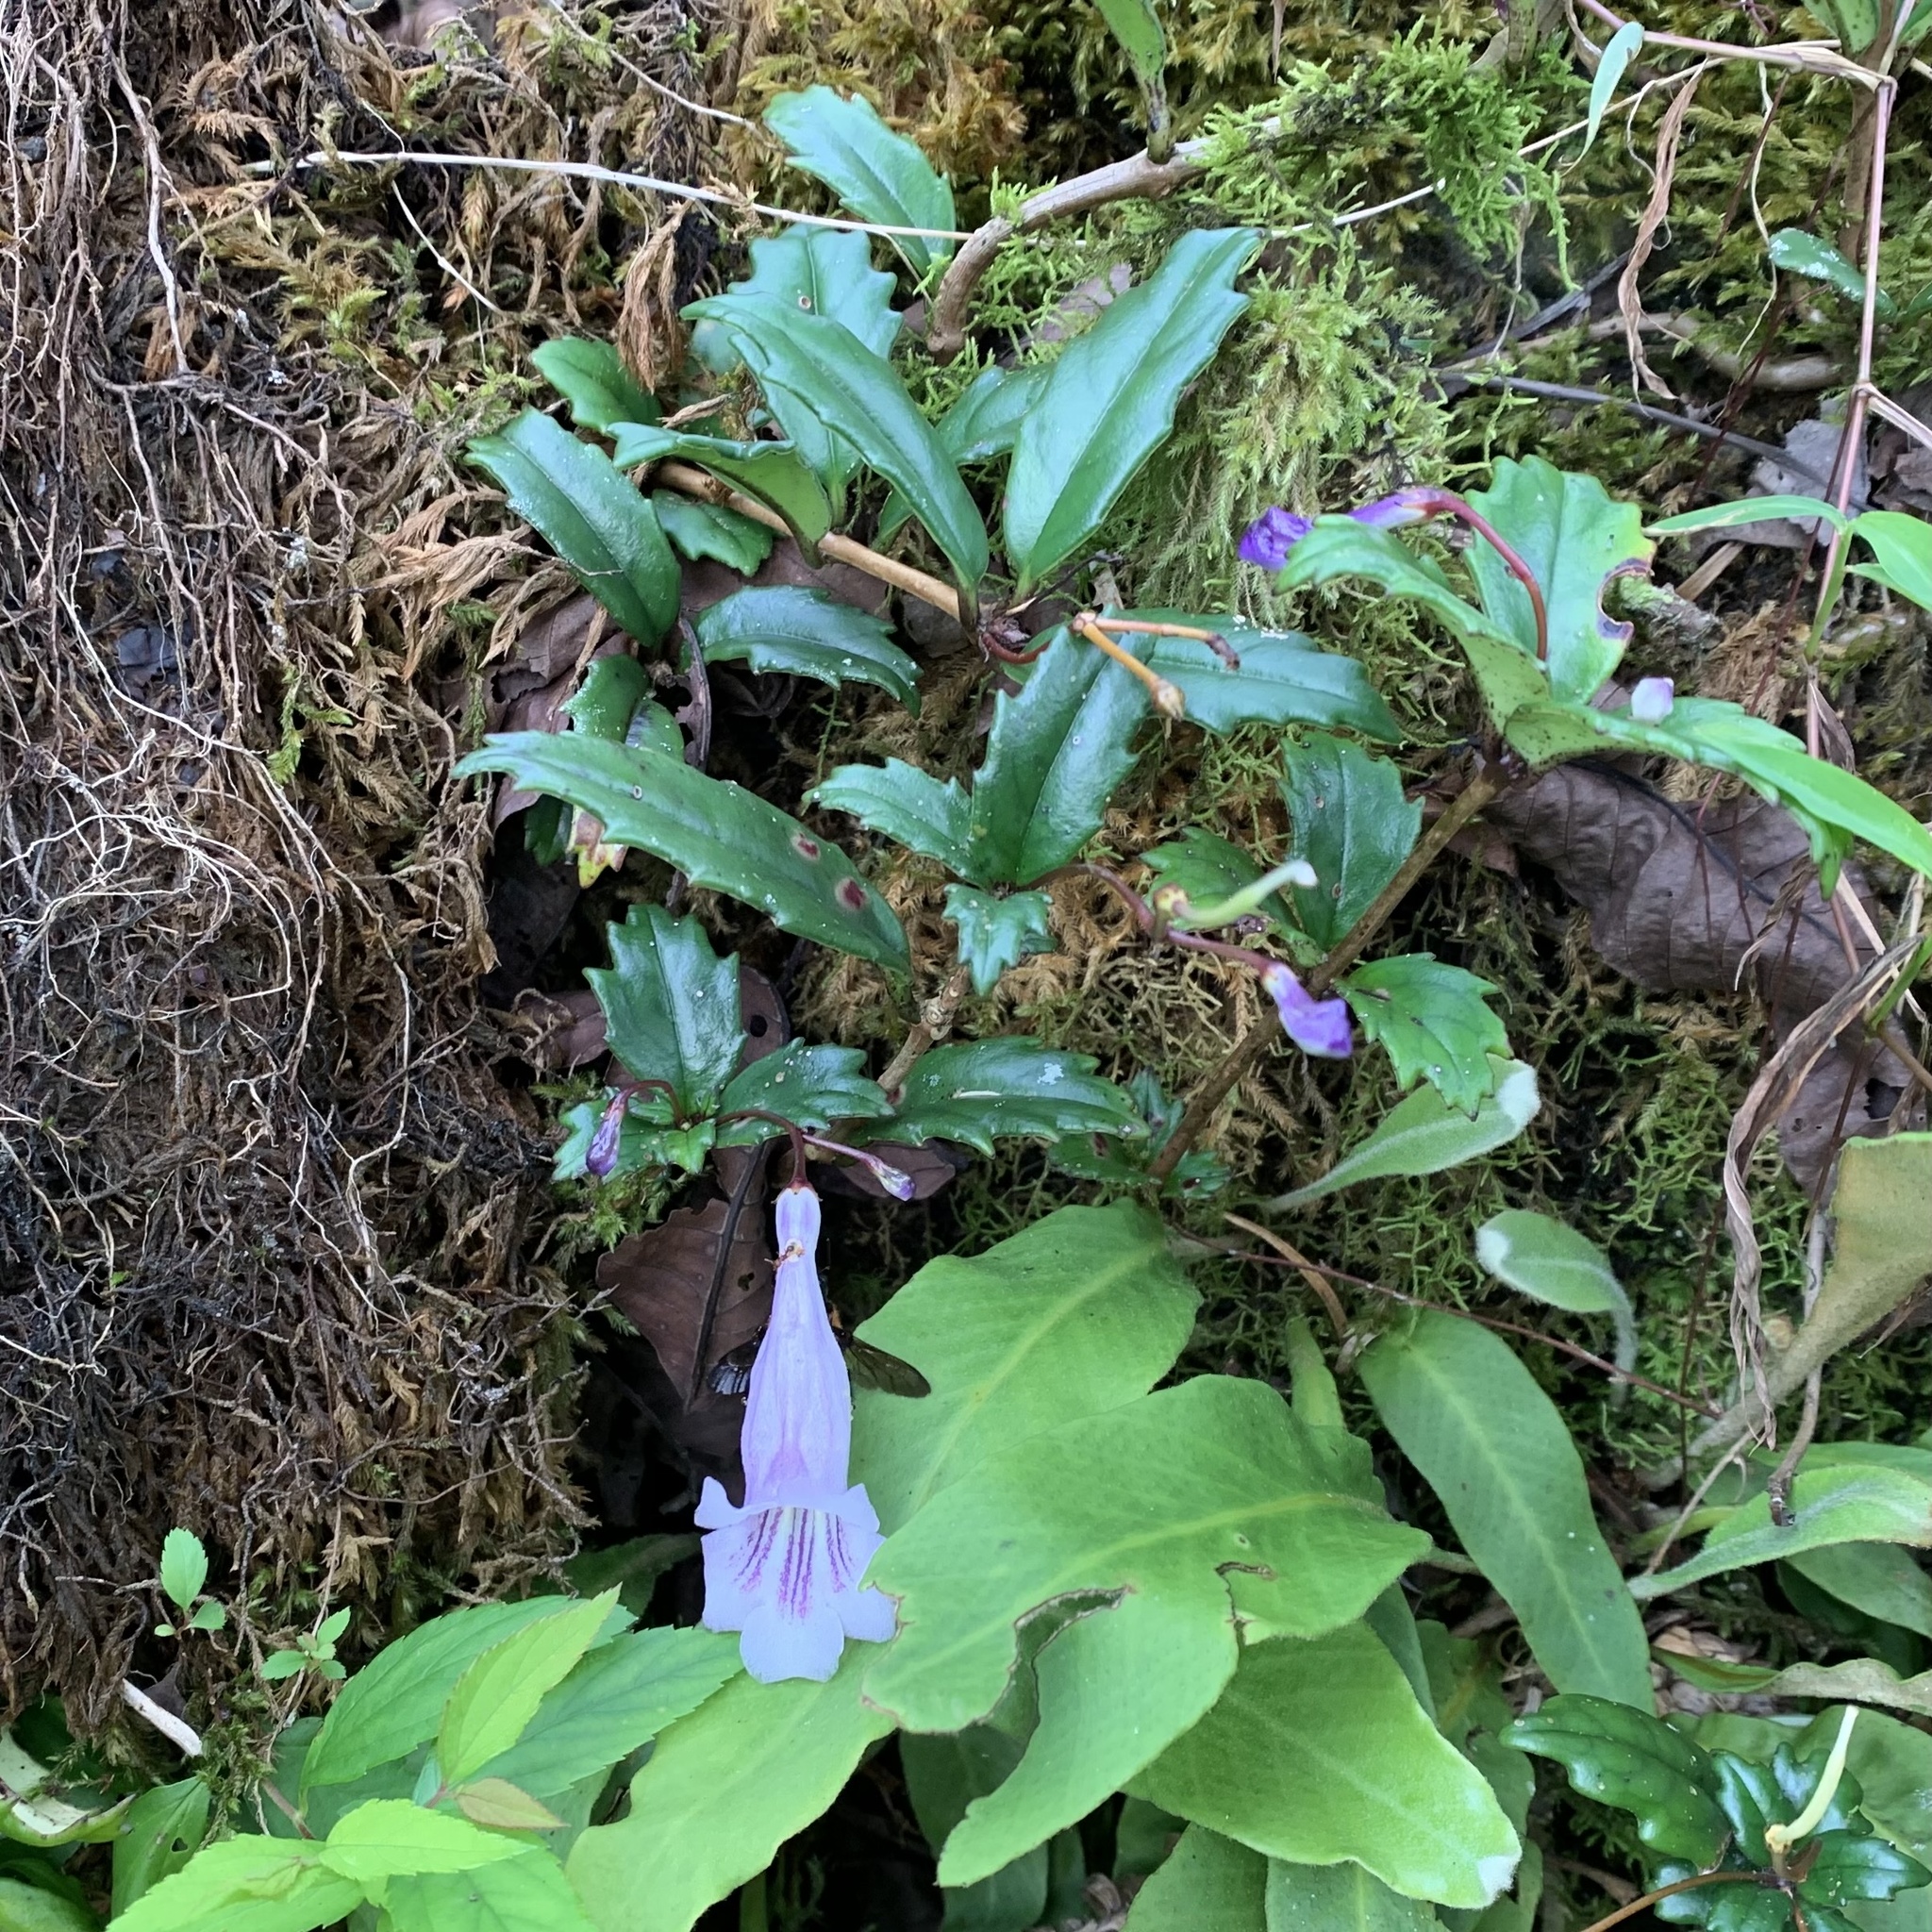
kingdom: Plantae
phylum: Tracheophyta
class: Magnoliopsida
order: Lamiales
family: Gesneriaceae
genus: Lysionotus
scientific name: Lysionotus pauciflorus
